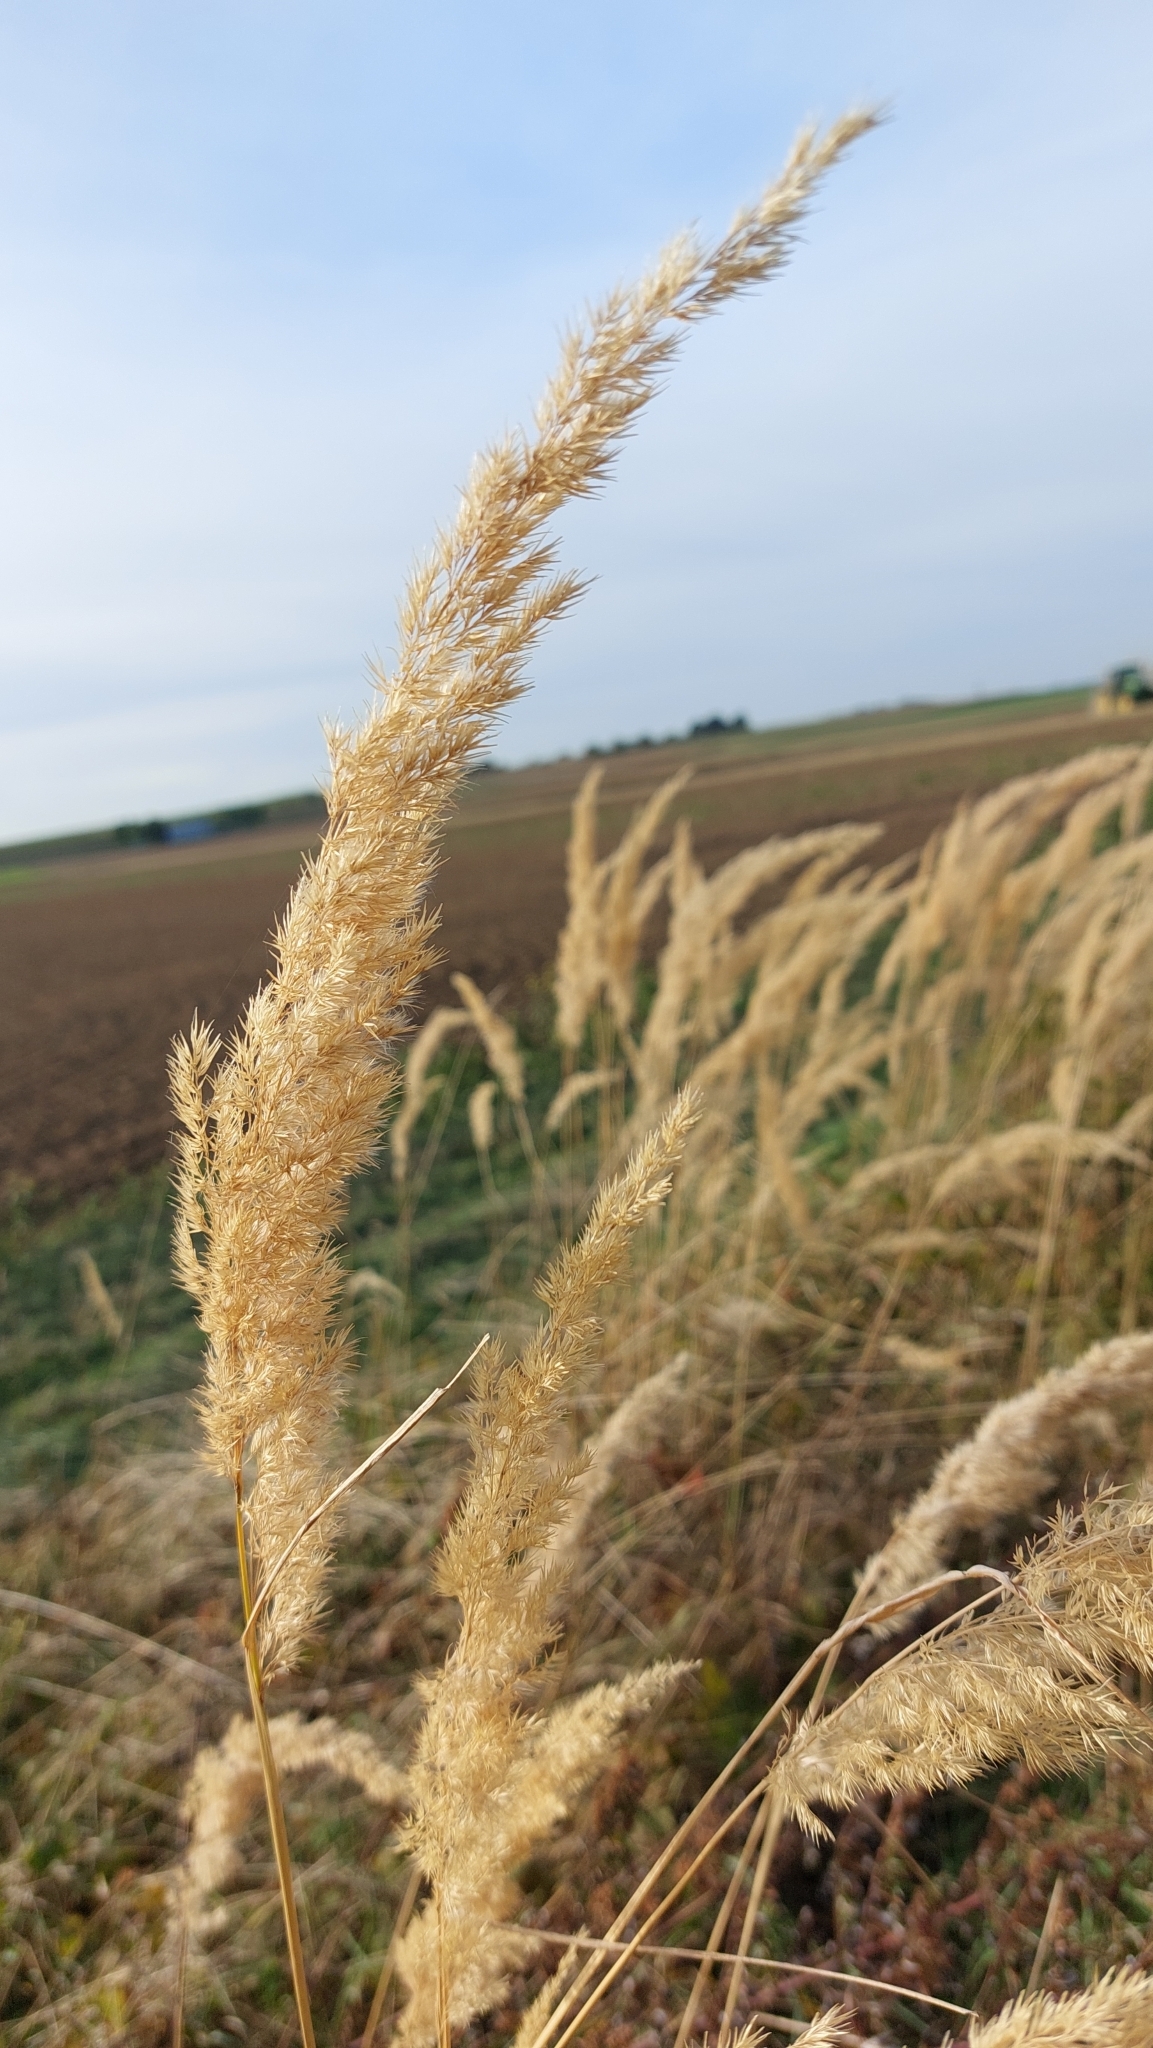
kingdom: Plantae
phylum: Tracheophyta
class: Liliopsida
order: Poales
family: Poaceae
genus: Calamagrostis
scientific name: Calamagrostis epigejos
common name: Wood small-reed
